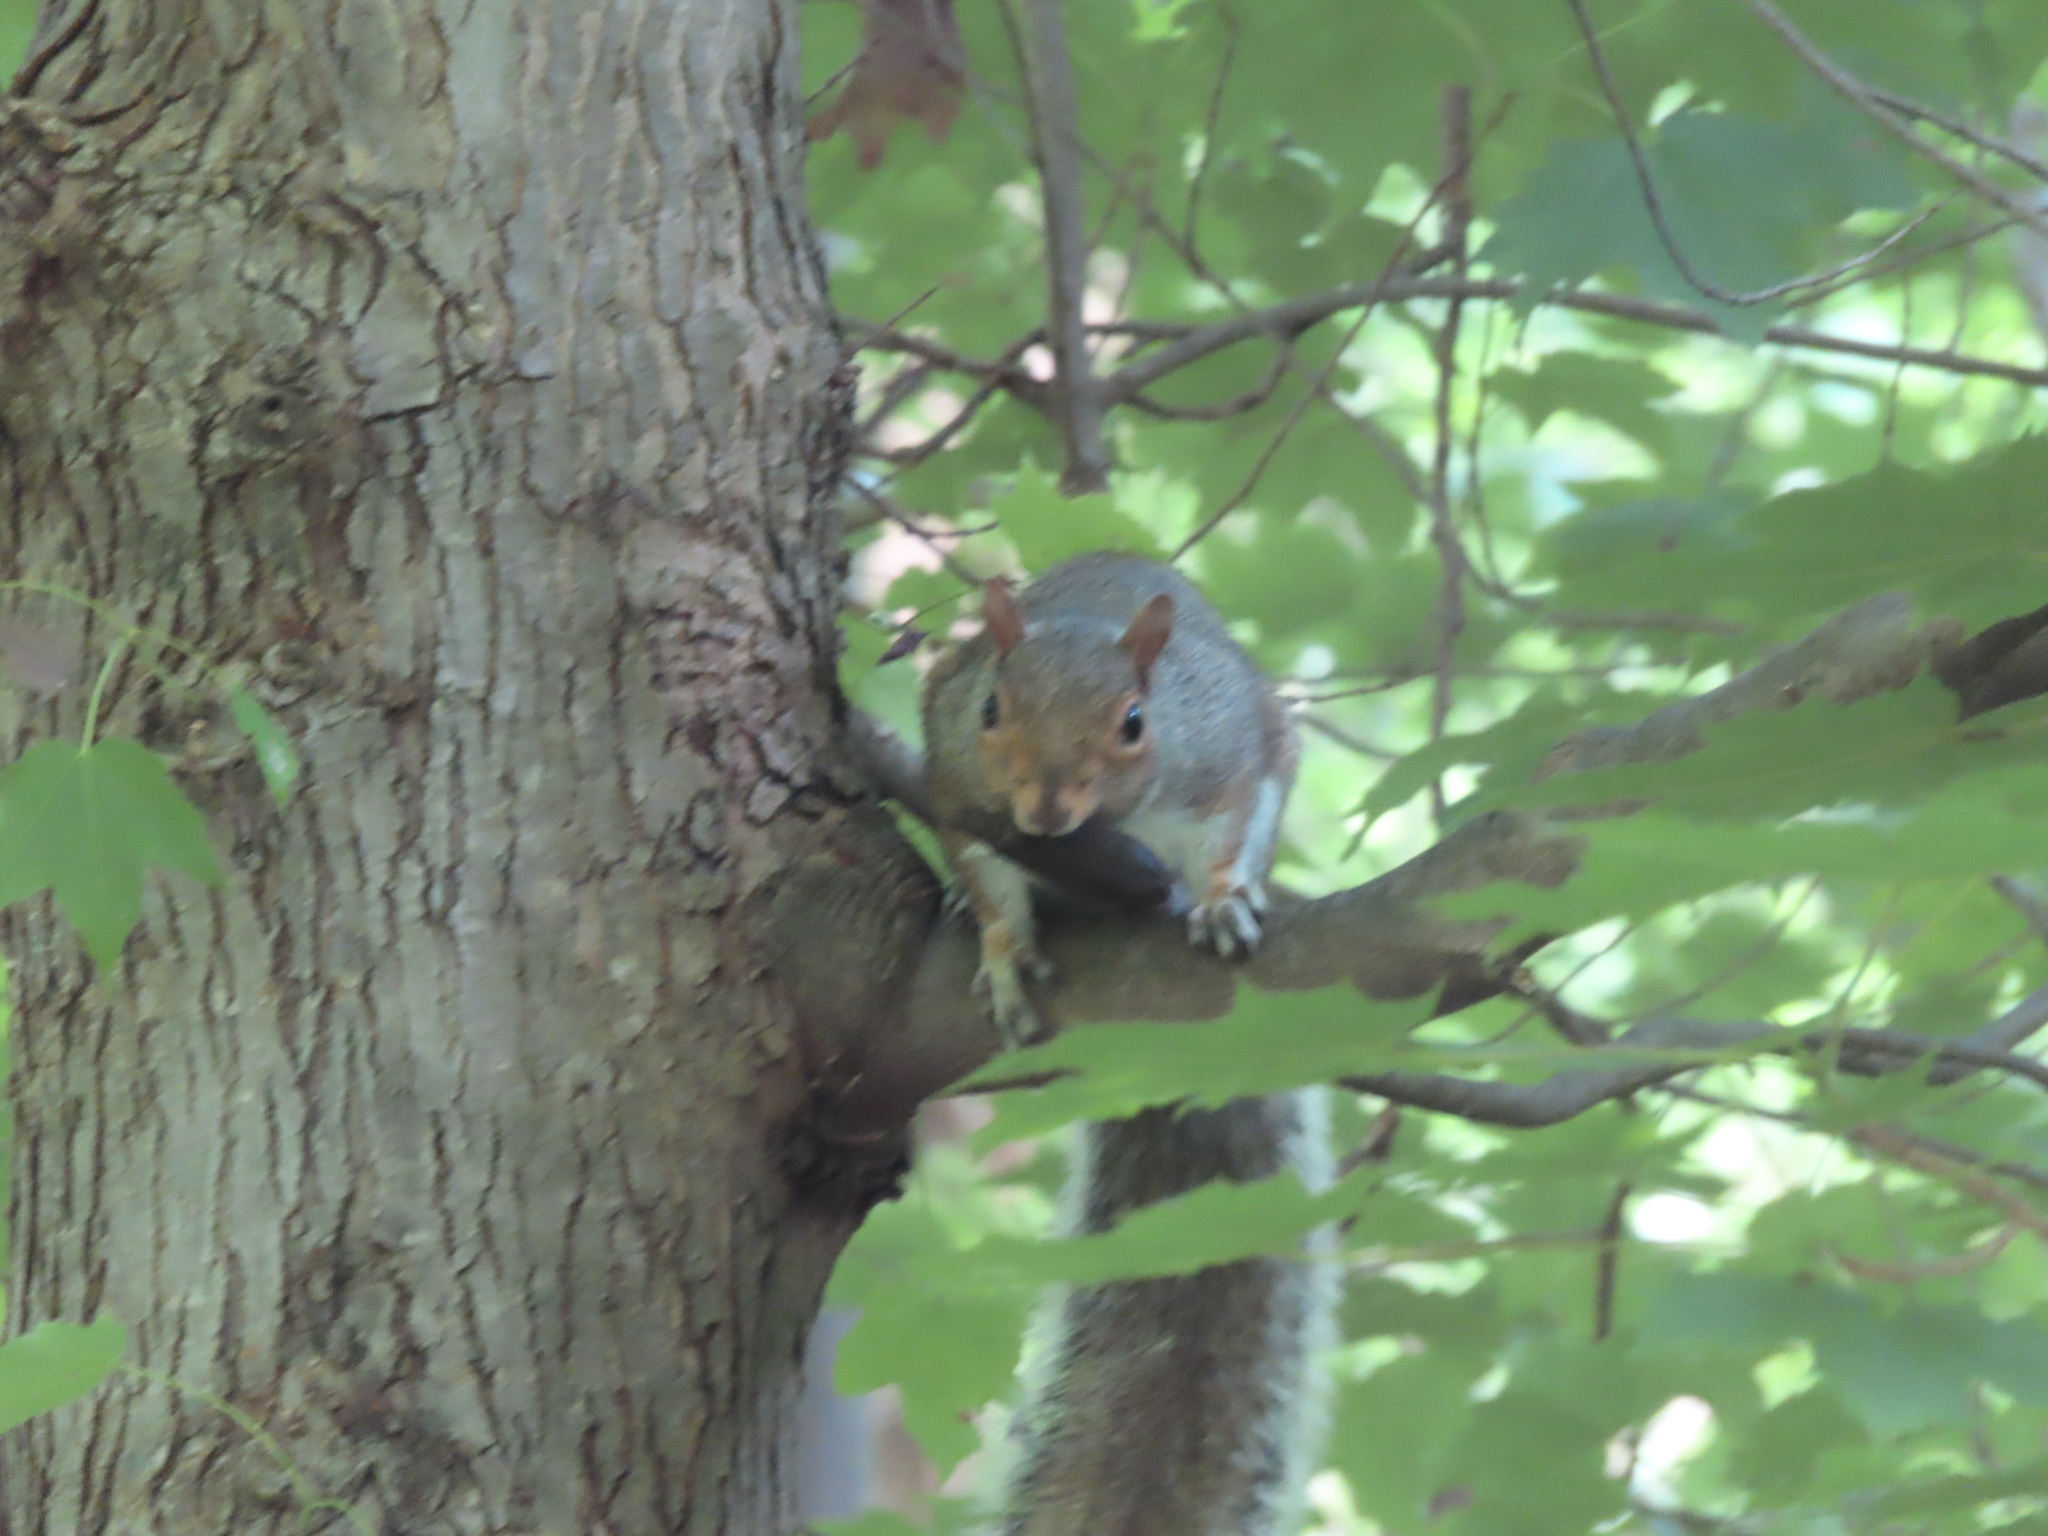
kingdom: Animalia
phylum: Chordata
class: Mammalia
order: Rodentia
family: Sciuridae
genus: Sciurus
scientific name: Sciurus carolinensis
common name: Eastern gray squirrel
